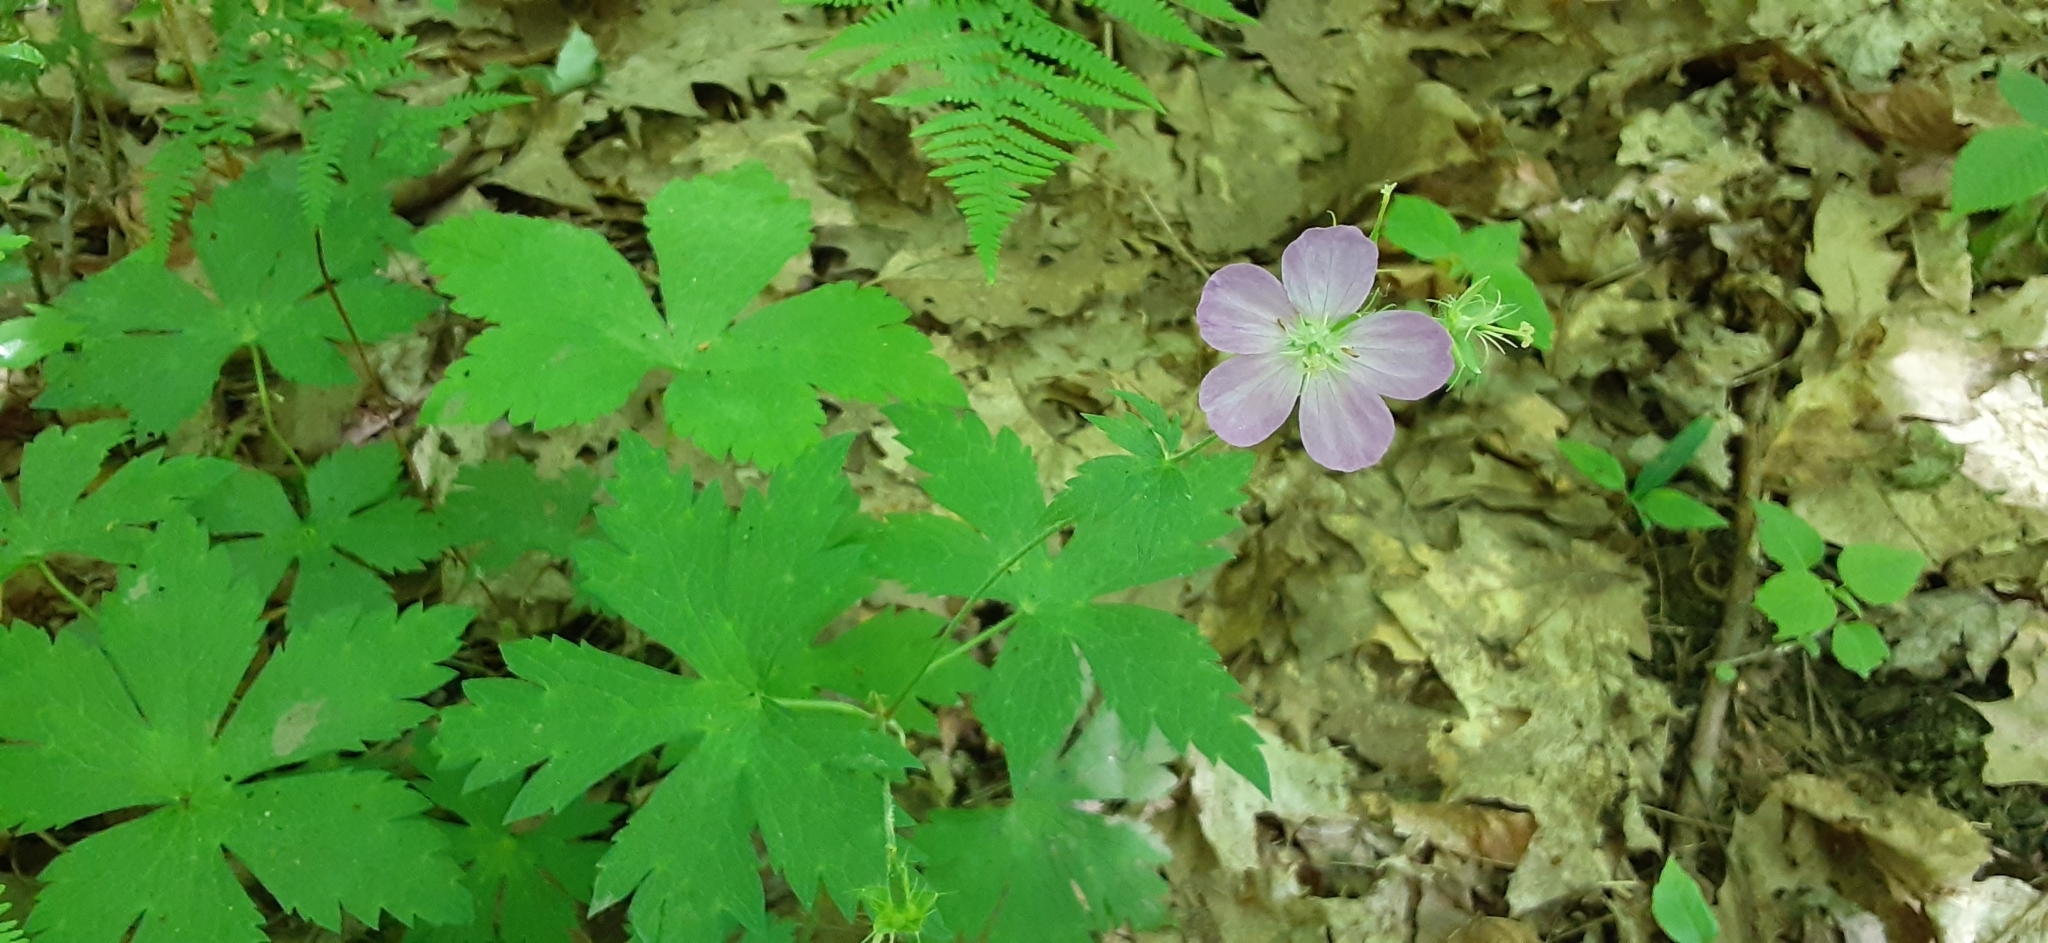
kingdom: Plantae
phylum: Tracheophyta
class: Magnoliopsida
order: Geraniales
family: Geraniaceae
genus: Geranium
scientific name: Geranium maculatum
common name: Spotted geranium
